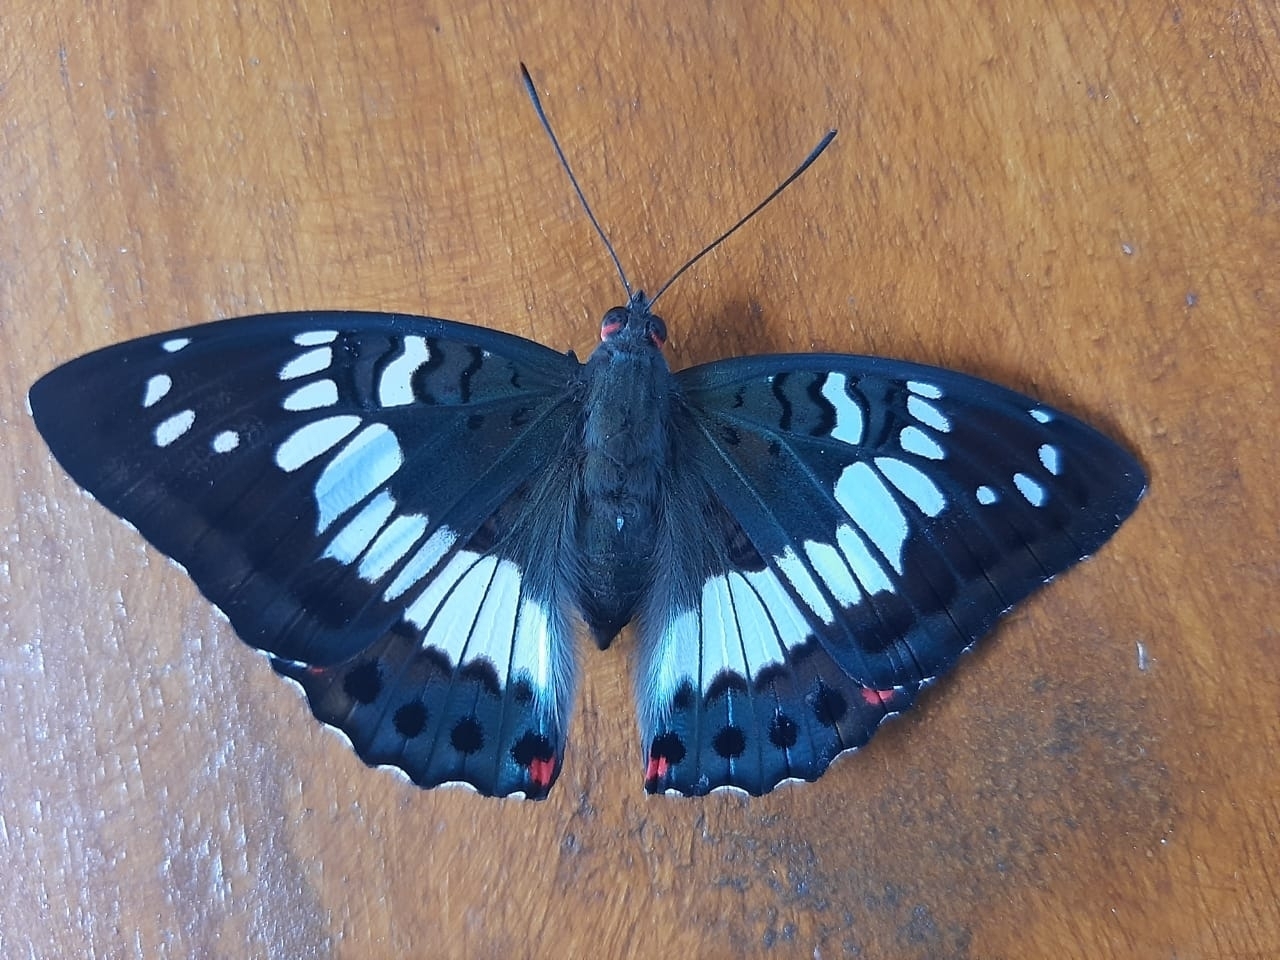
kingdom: Animalia
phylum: Arthropoda
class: Insecta
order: Lepidoptera
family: Nymphalidae
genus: Euthalia
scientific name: Euthalia adonia
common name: Green baron
